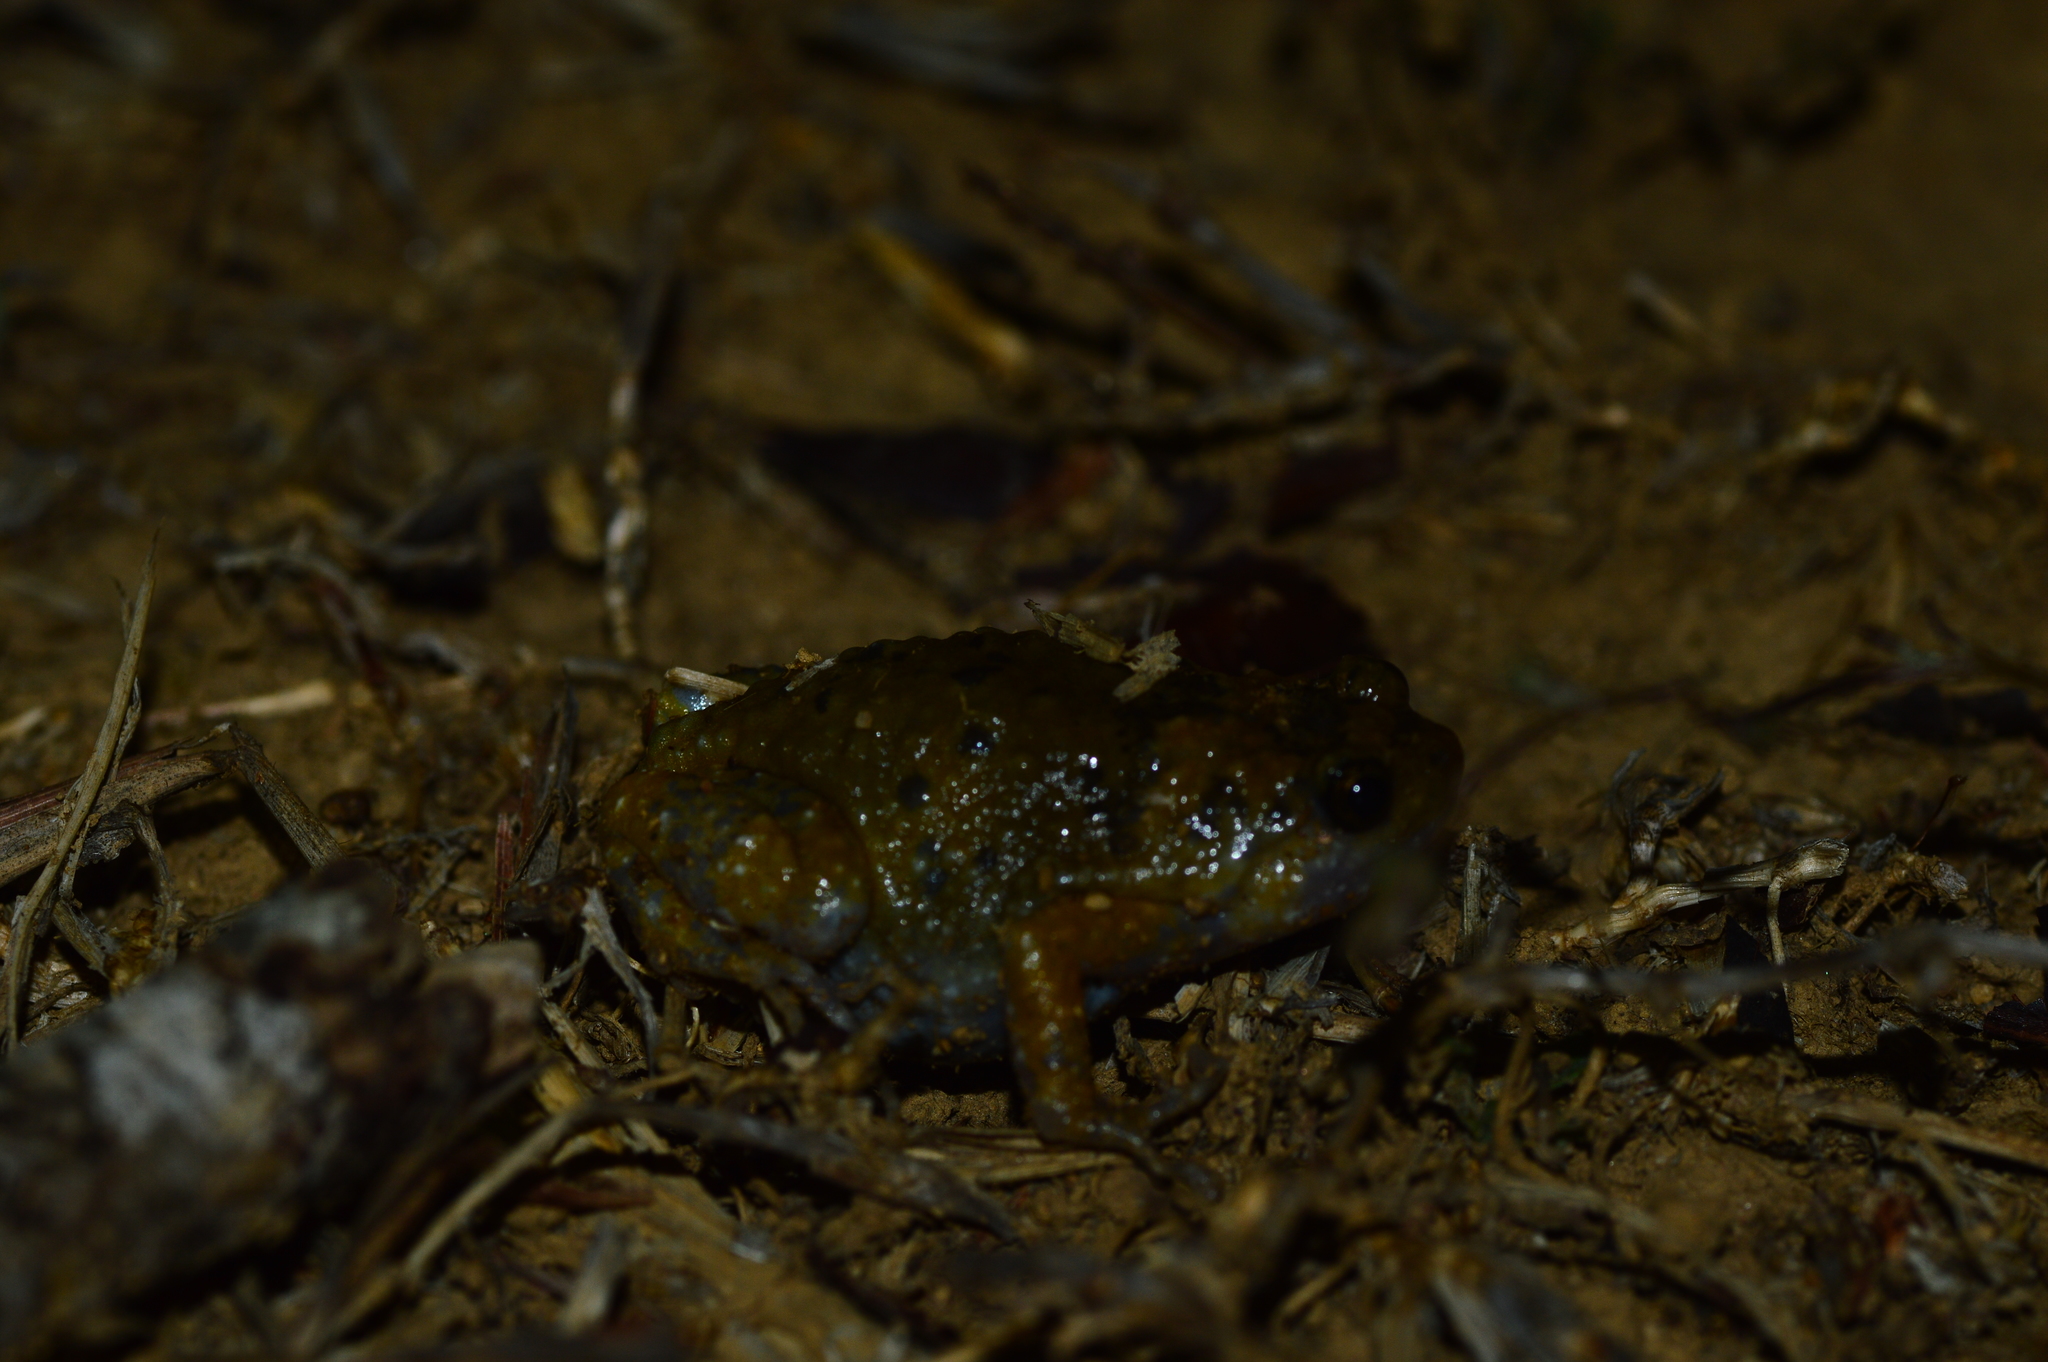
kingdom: Animalia
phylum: Chordata
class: Amphibia
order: Anura
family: Microhylidae
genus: Uperodon
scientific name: Uperodon mormoratus
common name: Indian dot frog
